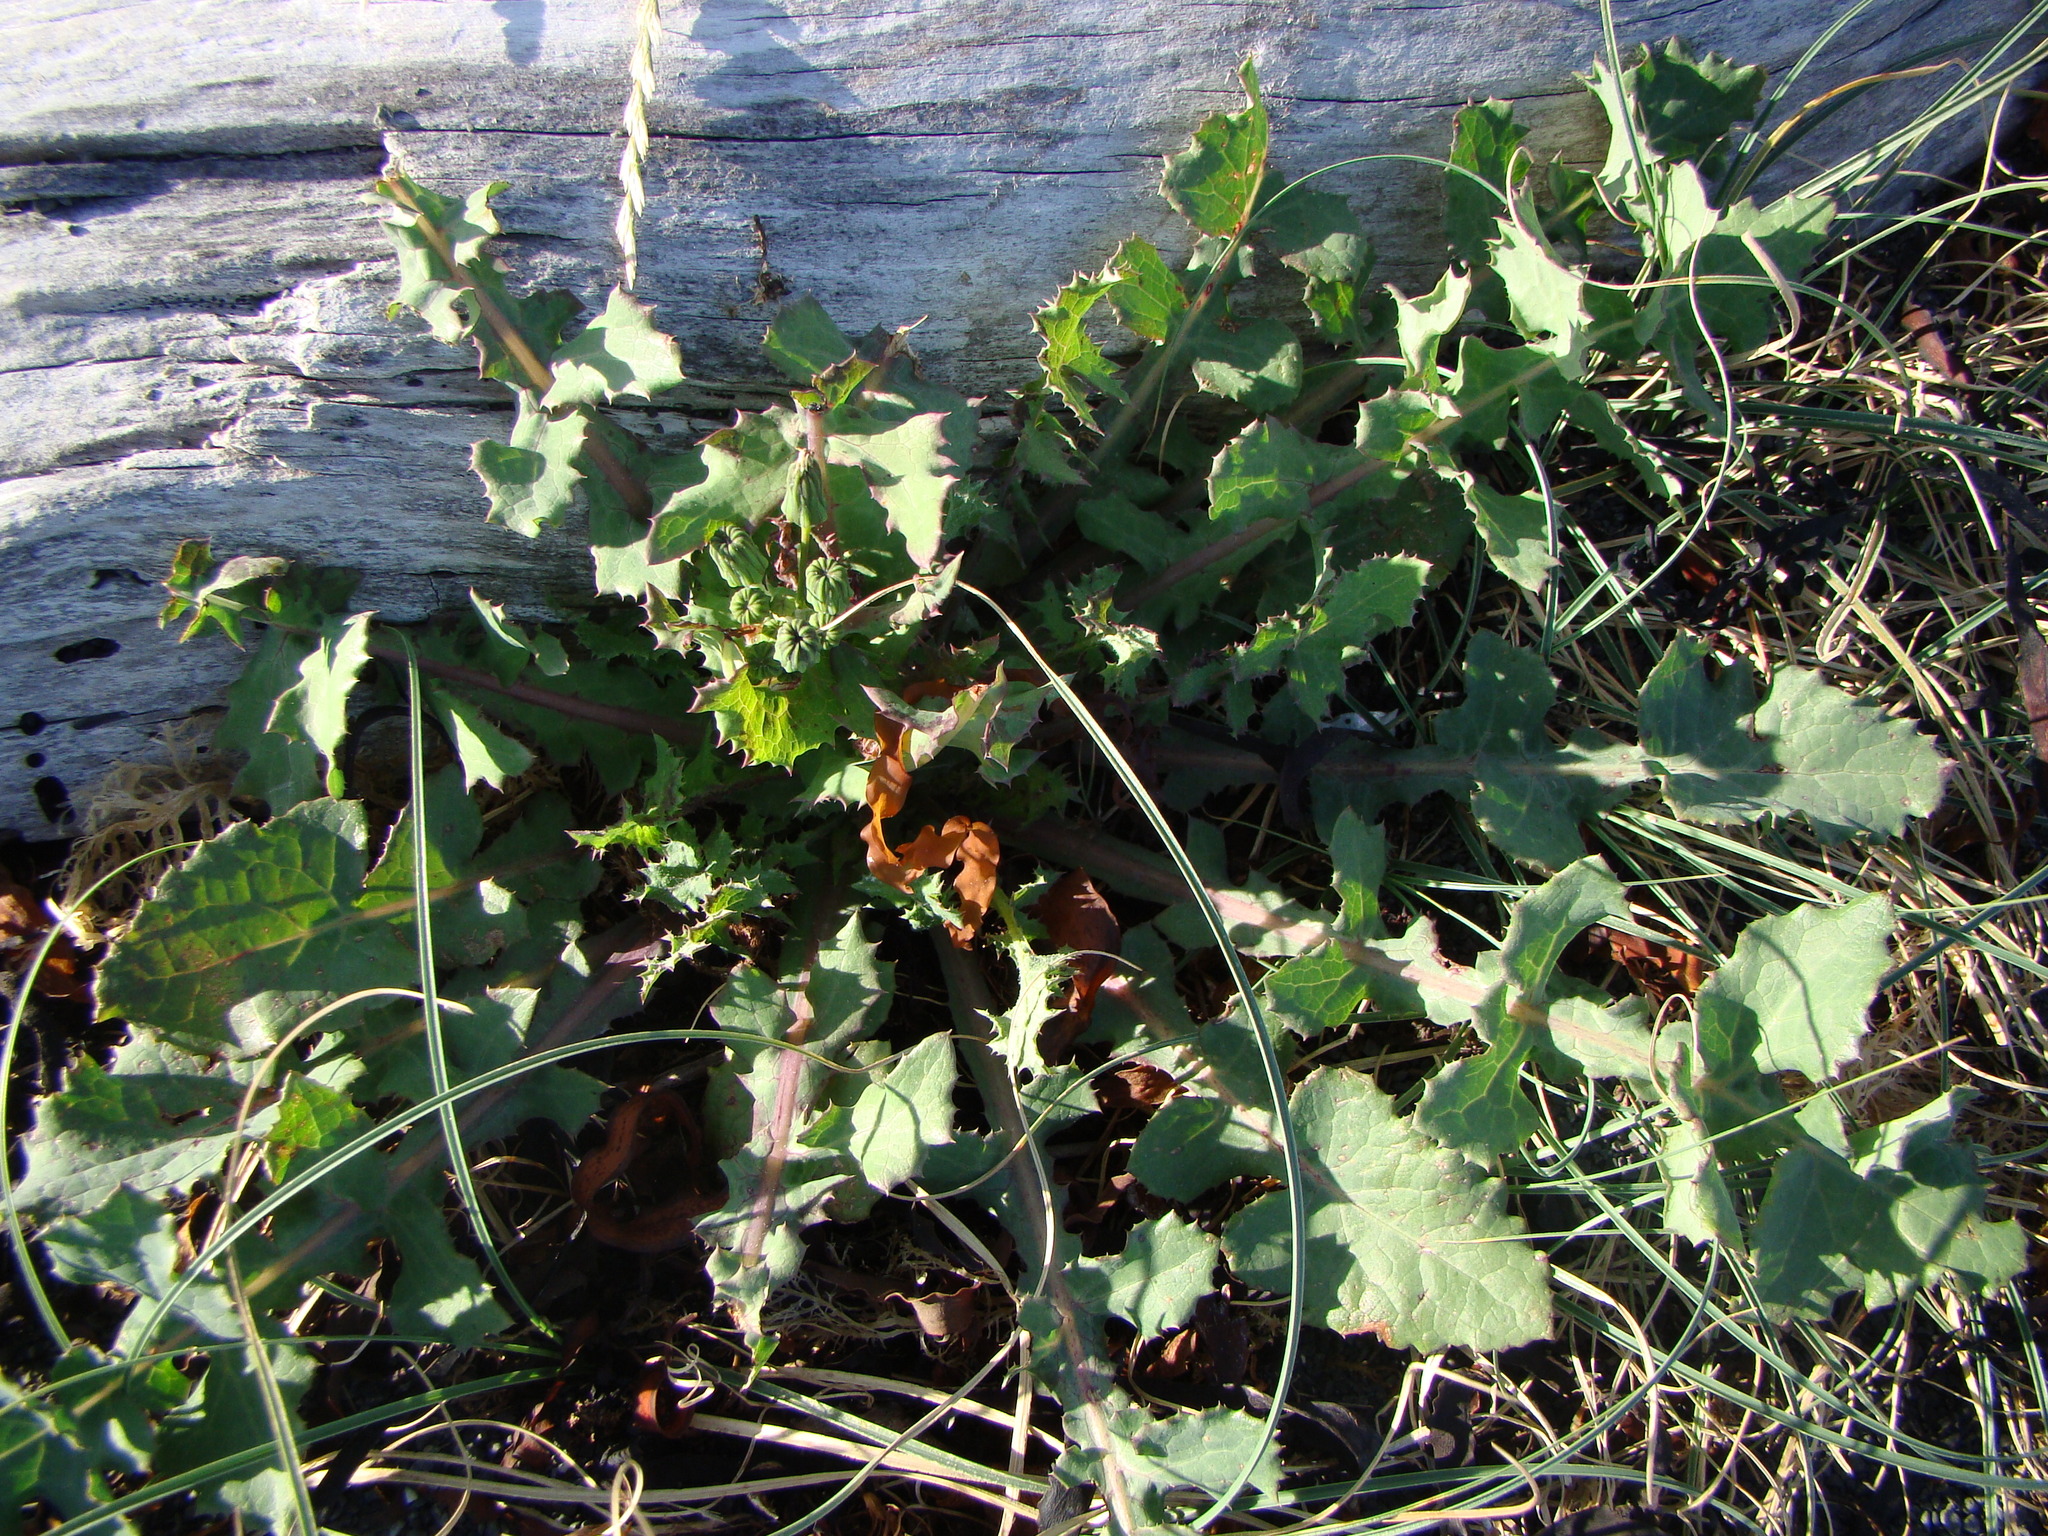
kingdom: Plantae
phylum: Tracheophyta
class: Magnoliopsida
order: Asterales
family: Asteraceae
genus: Sonchus
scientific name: Sonchus oleraceus
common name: Common sowthistle
